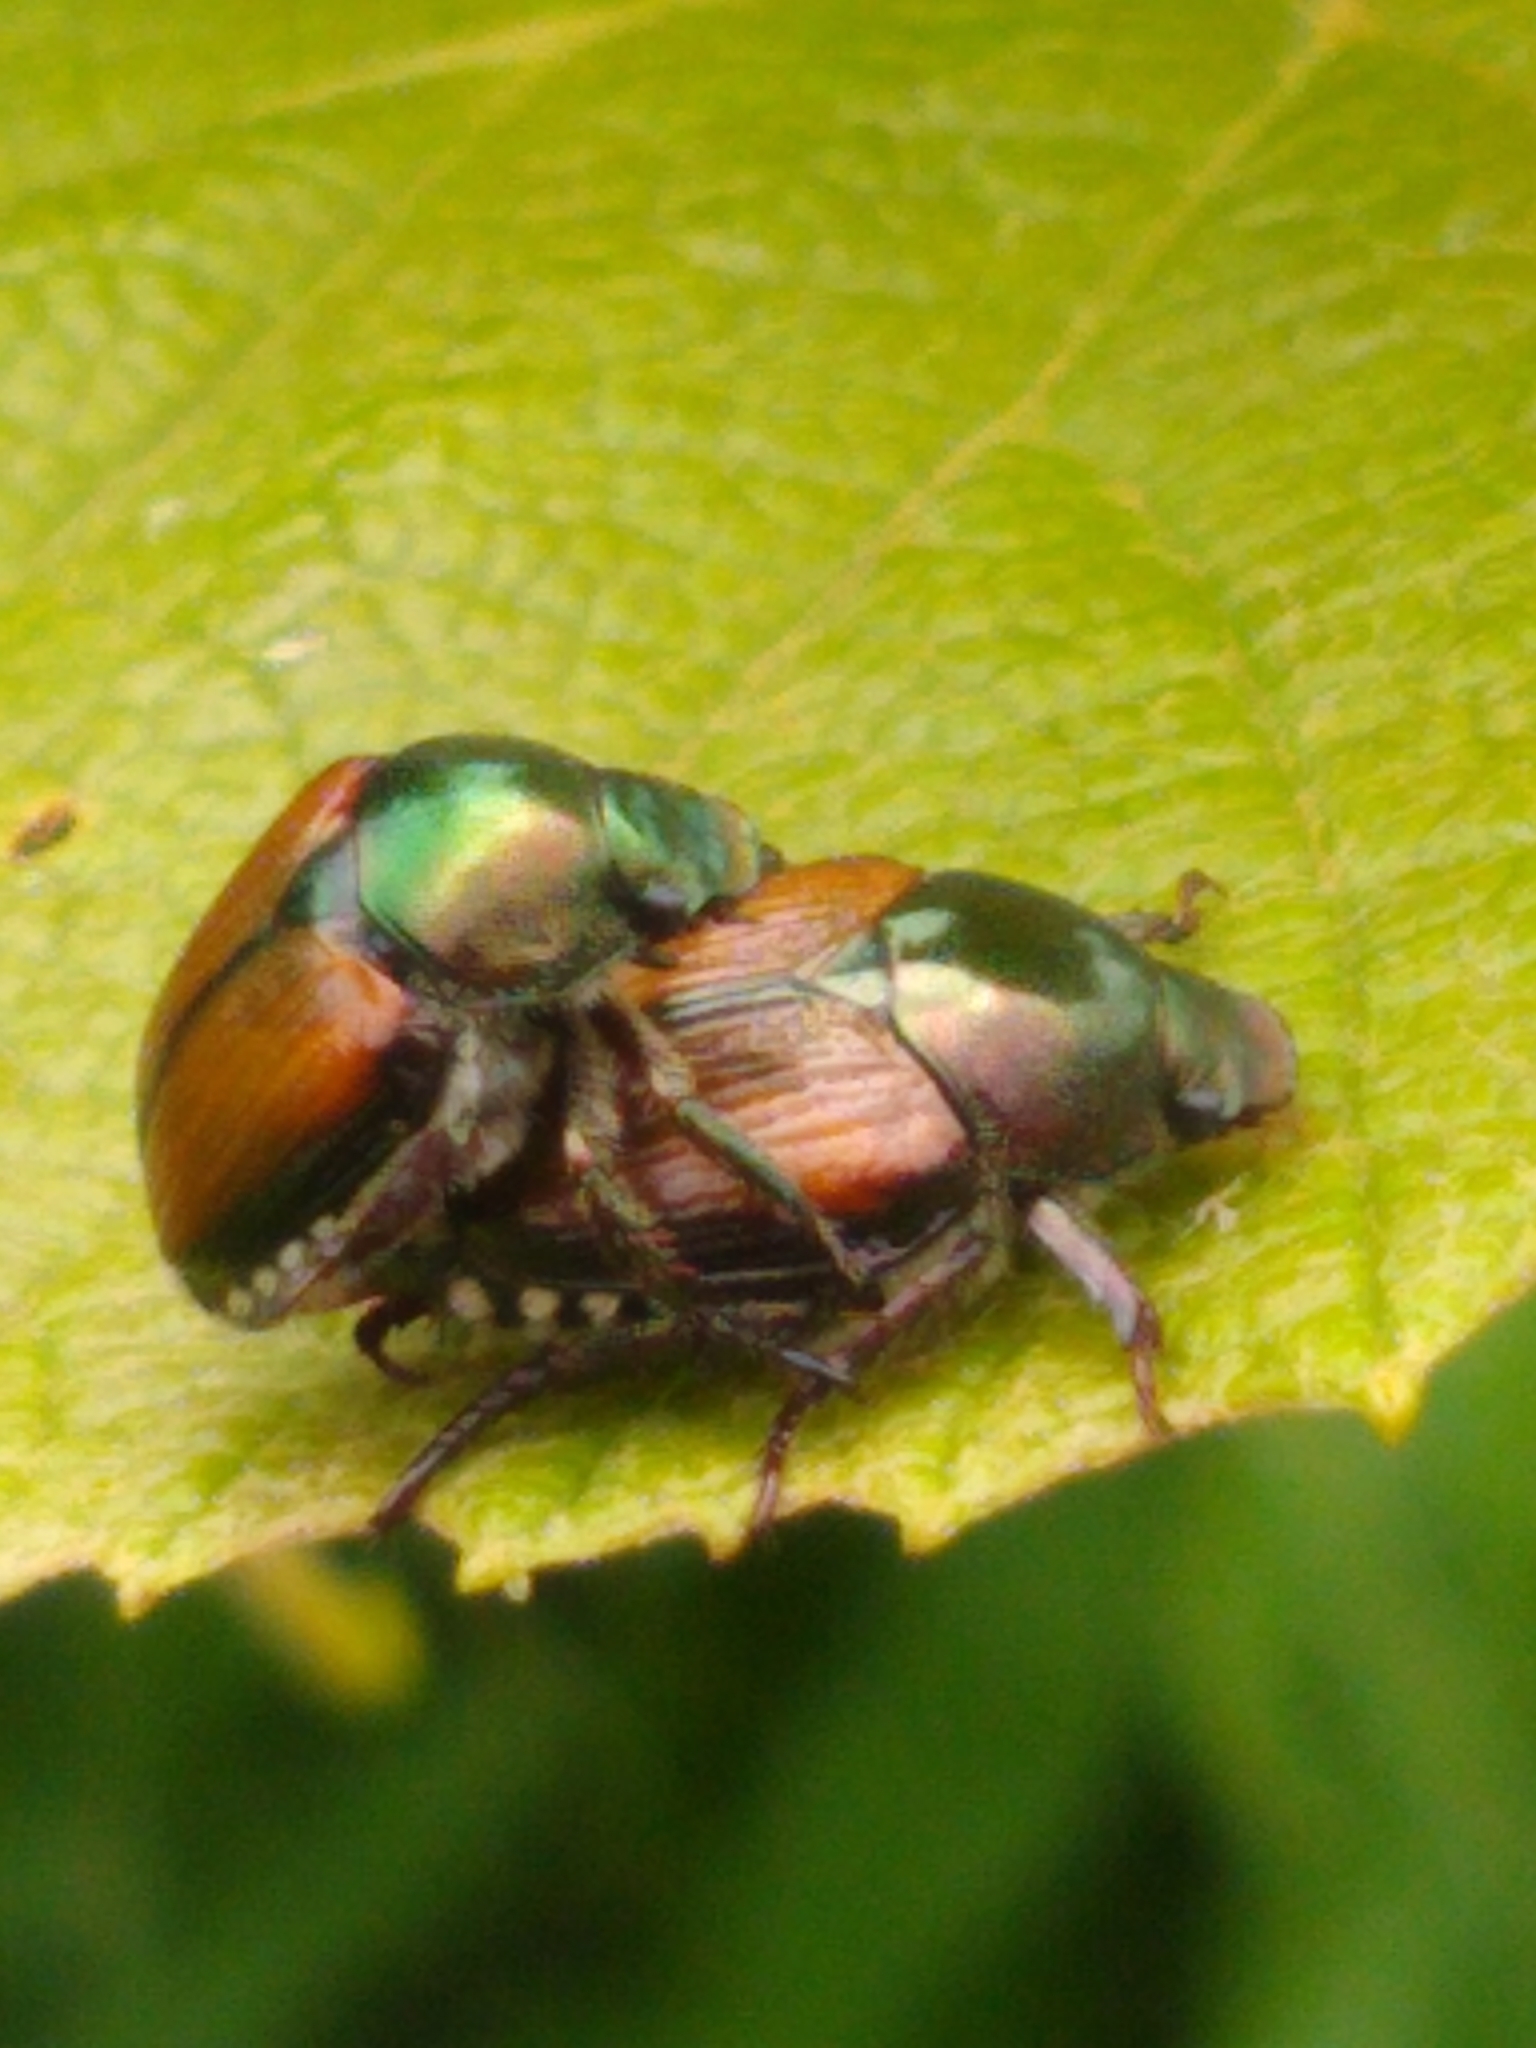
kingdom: Animalia
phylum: Arthropoda
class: Insecta
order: Coleoptera
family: Scarabaeidae
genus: Popillia
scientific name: Popillia japonica
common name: Japanese beetle
